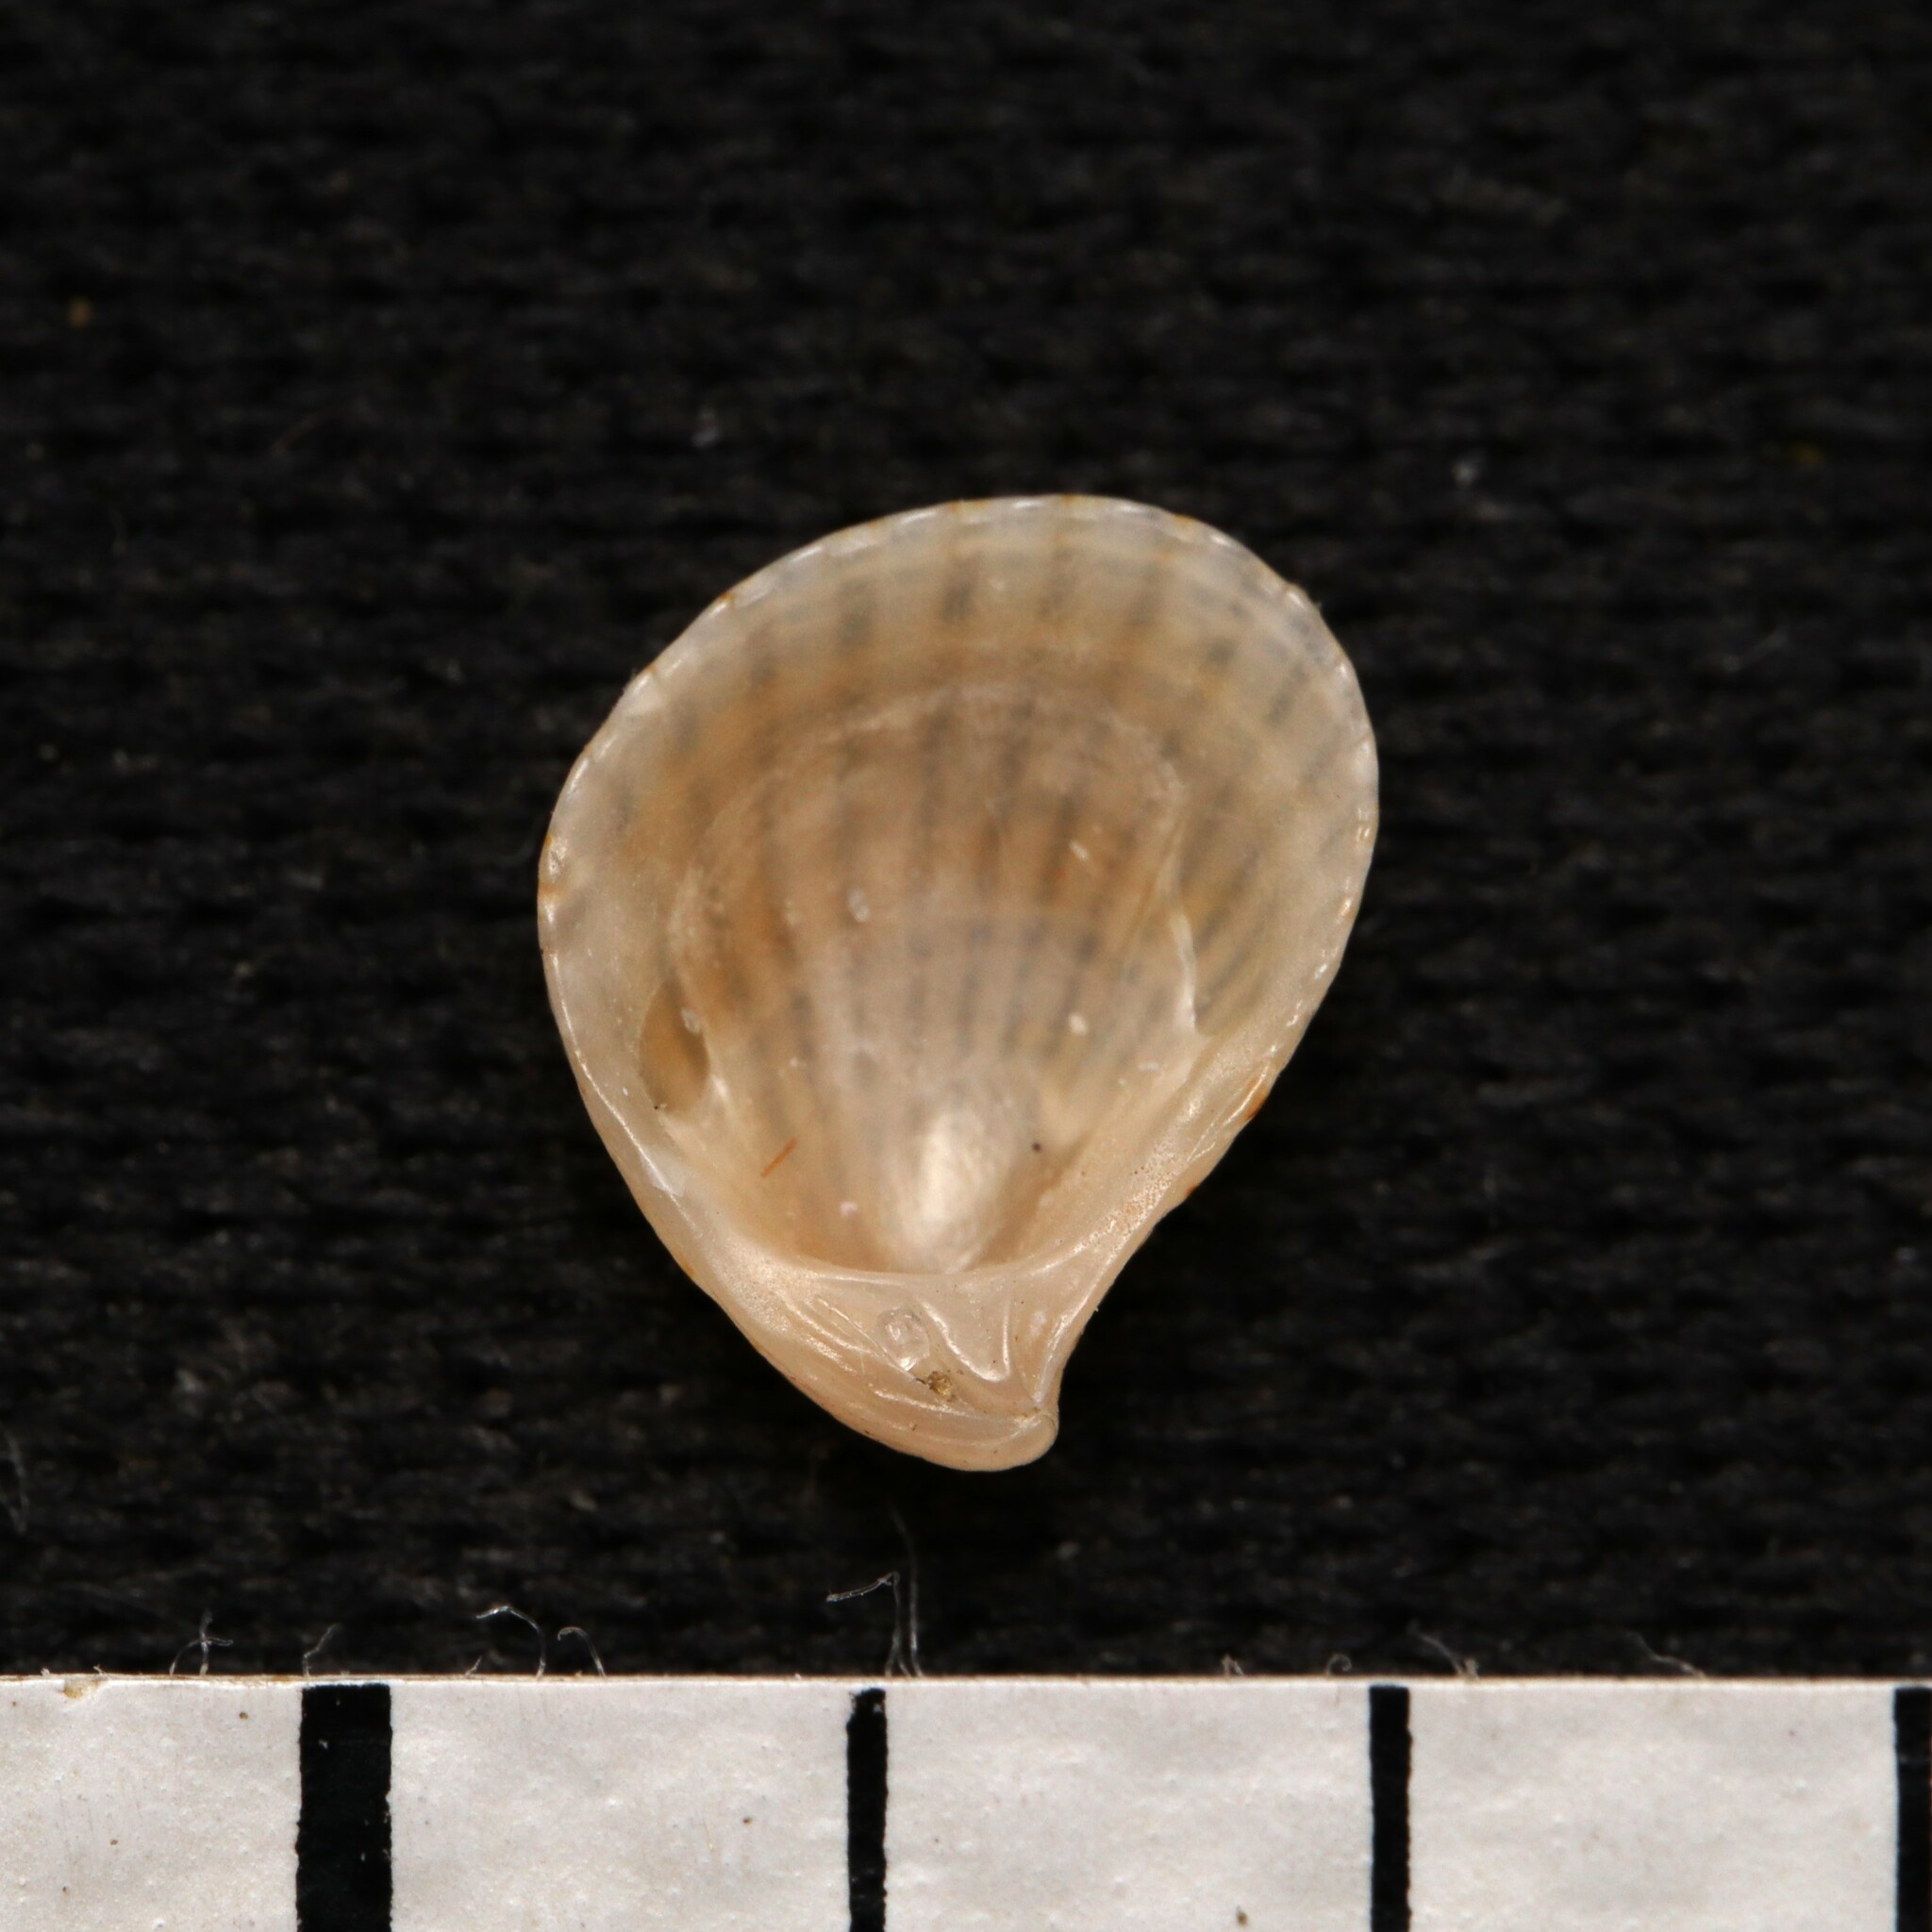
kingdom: Animalia
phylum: Mollusca
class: Bivalvia
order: Carditida
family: Carditidae
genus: Pteromeris
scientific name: Pteromeris perplana
